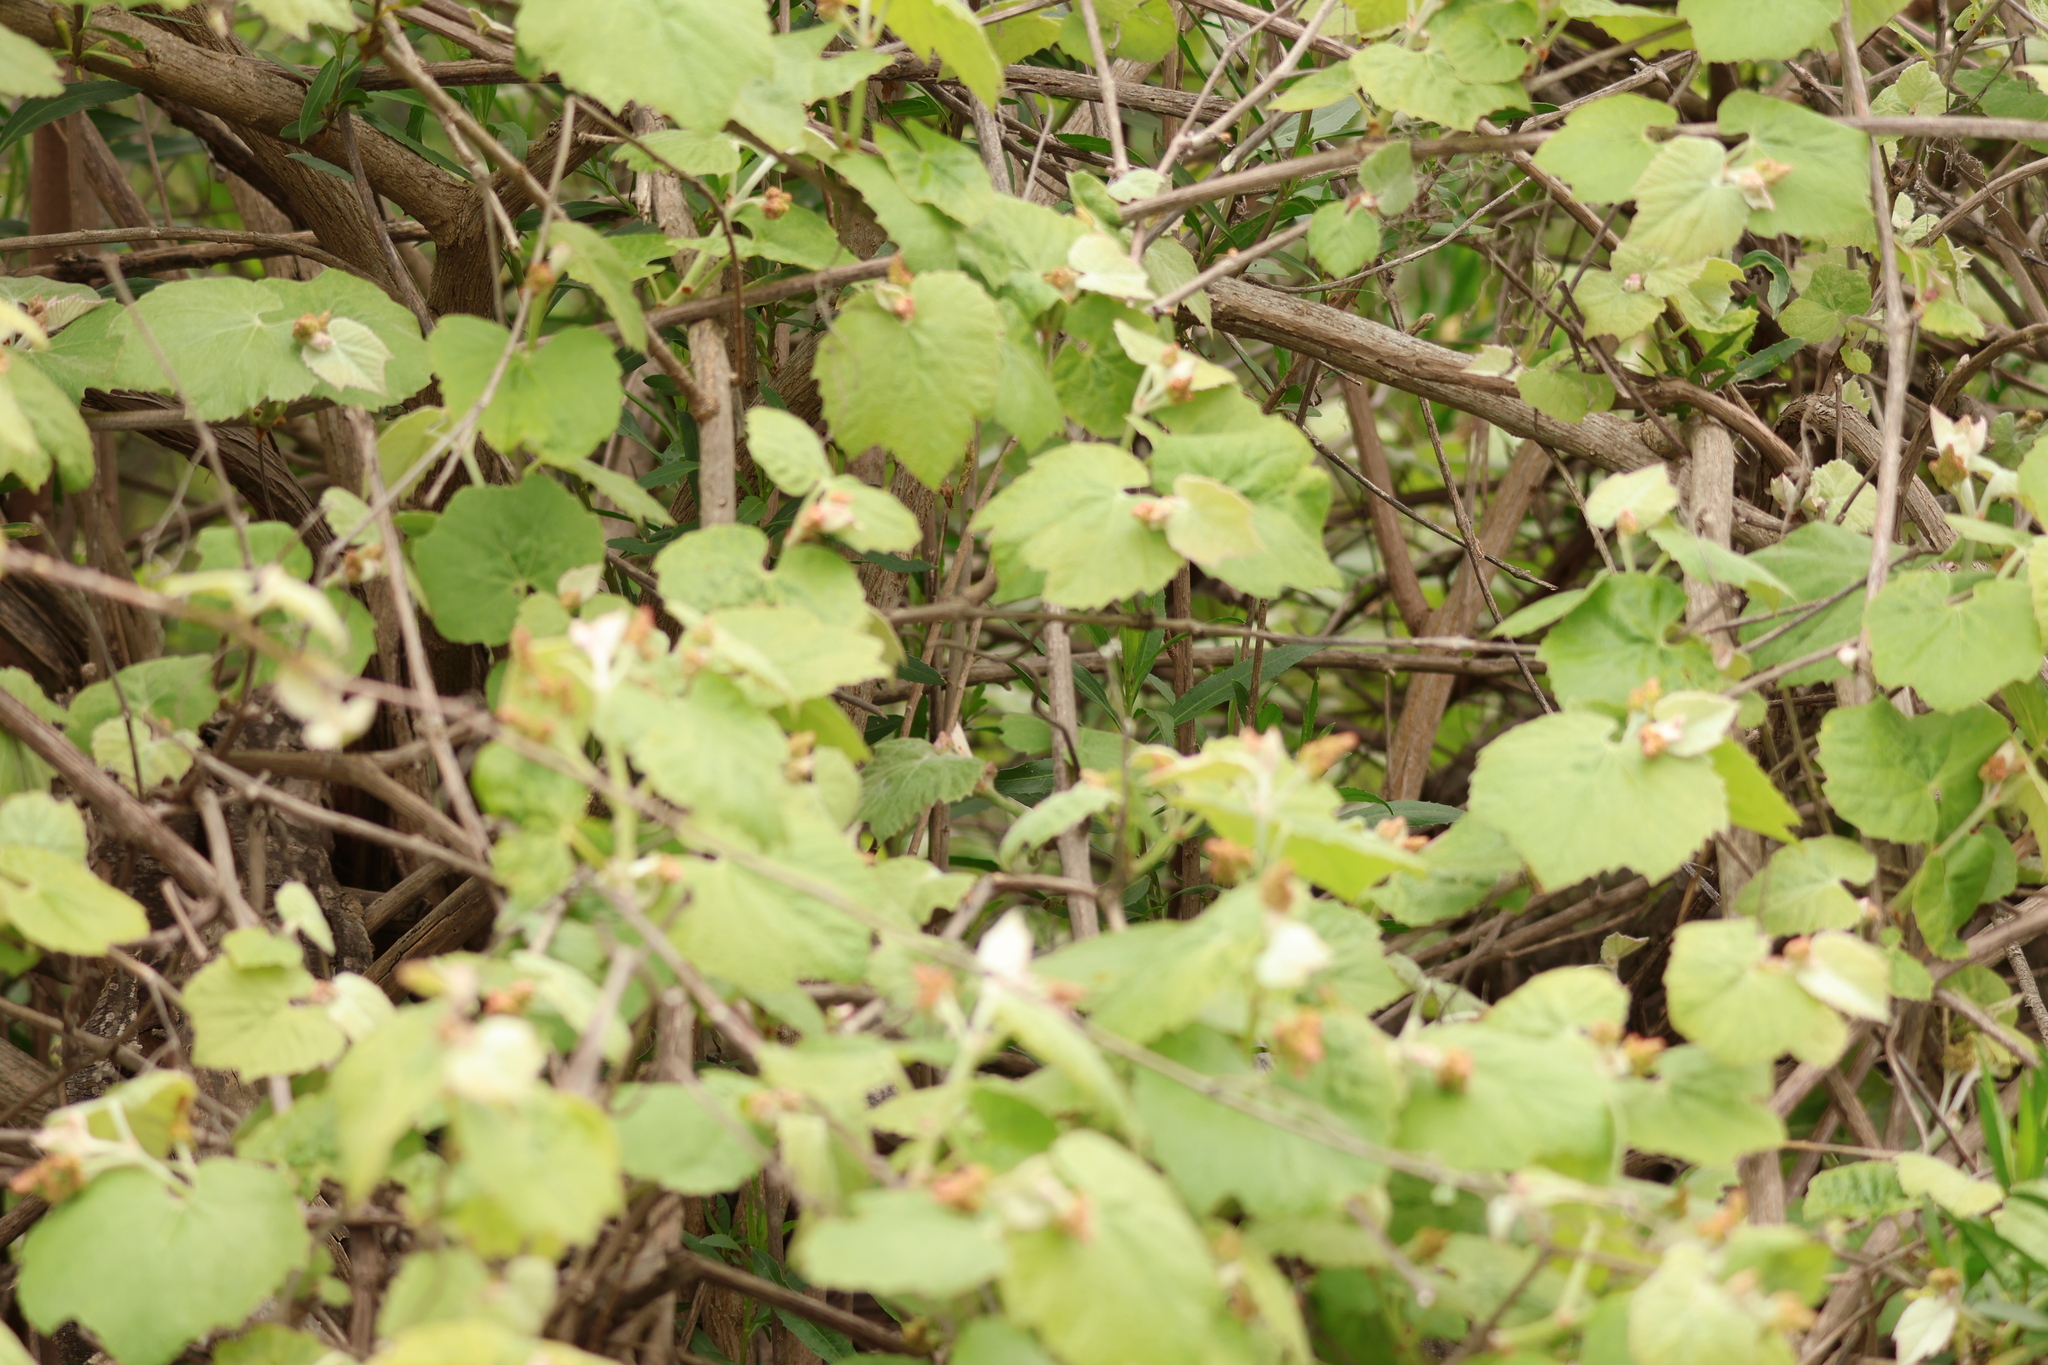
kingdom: Plantae
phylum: Tracheophyta
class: Magnoliopsida
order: Vitales
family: Vitaceae
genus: Vitis
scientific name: Vitis girdiana
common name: Desert wild grape
